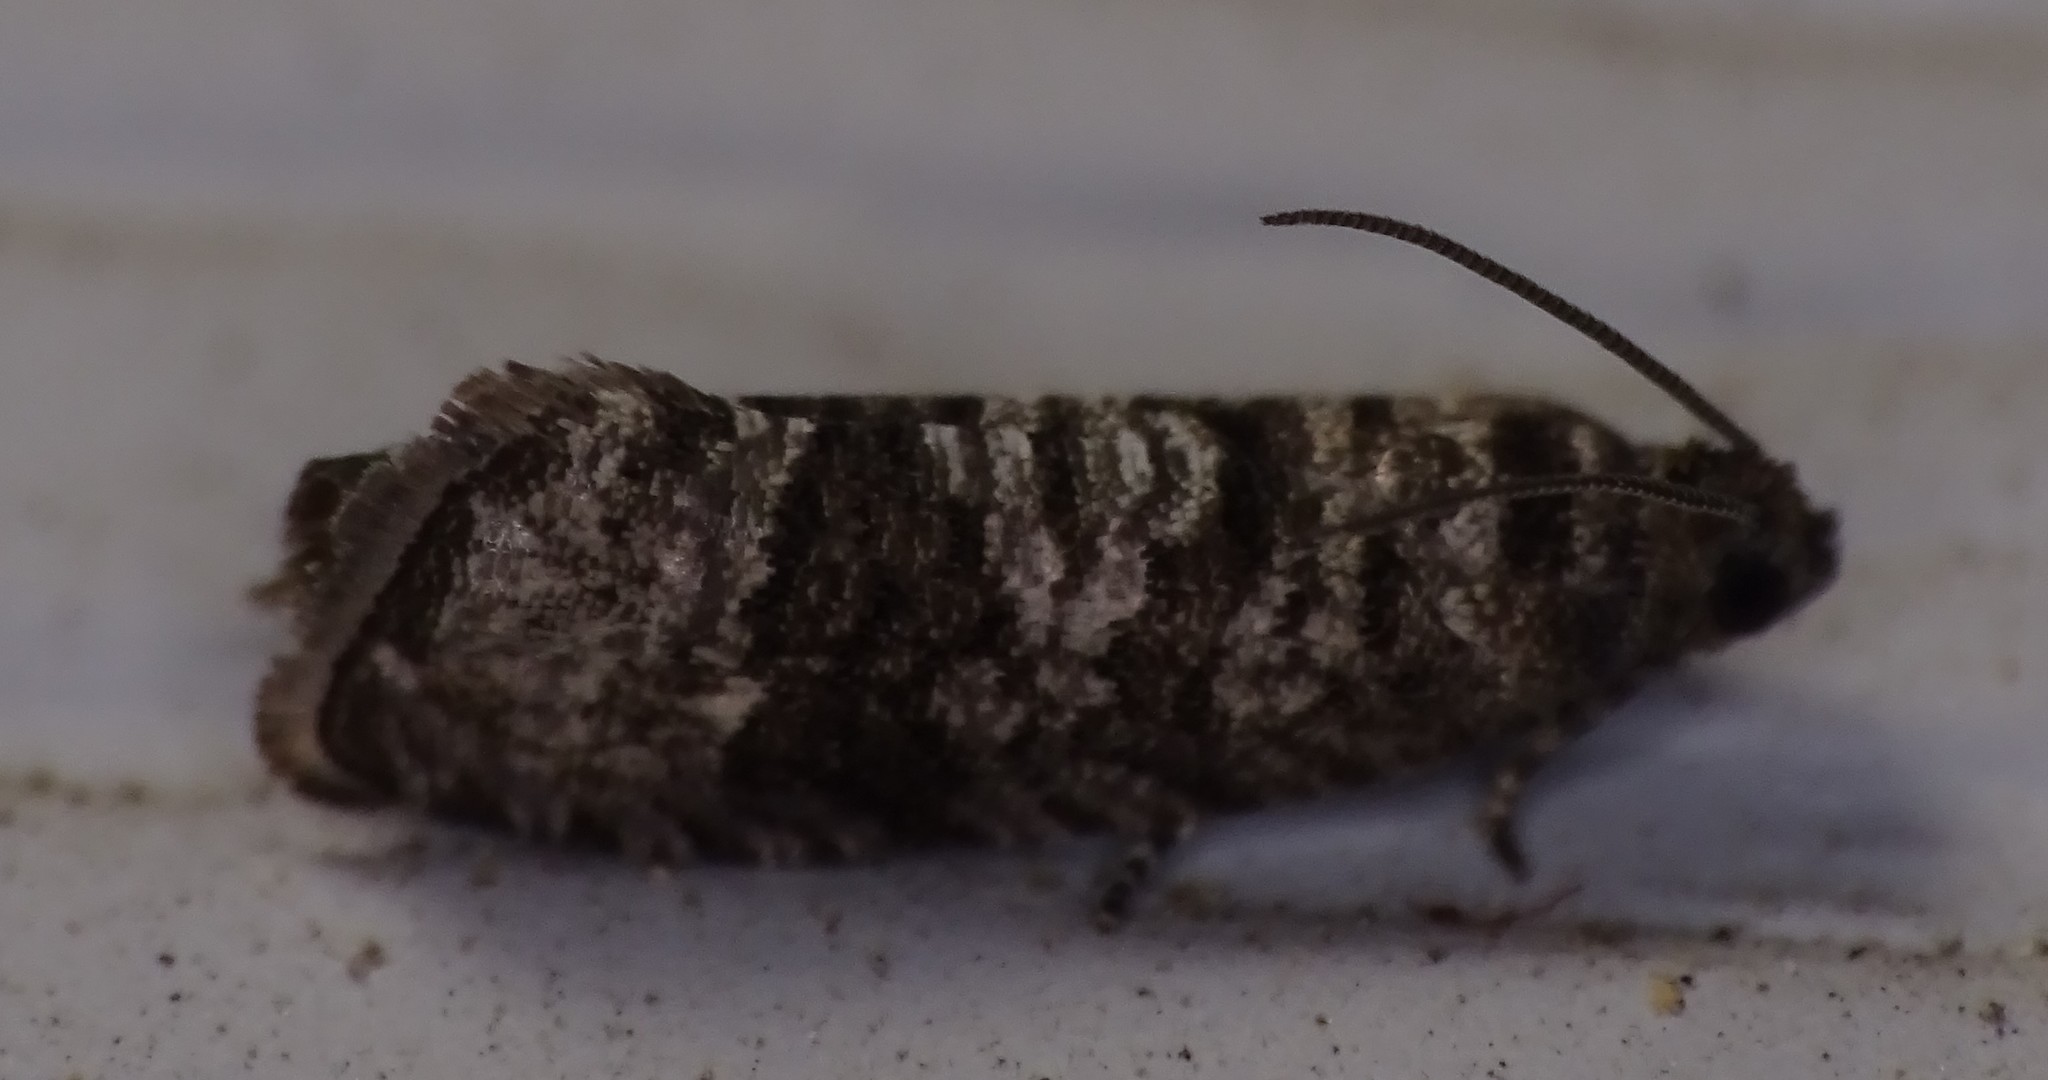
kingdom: Animalia
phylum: Arthropoda
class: Insecta
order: Lepidoptera
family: Noctuidae
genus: Aspila
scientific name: Aspila
